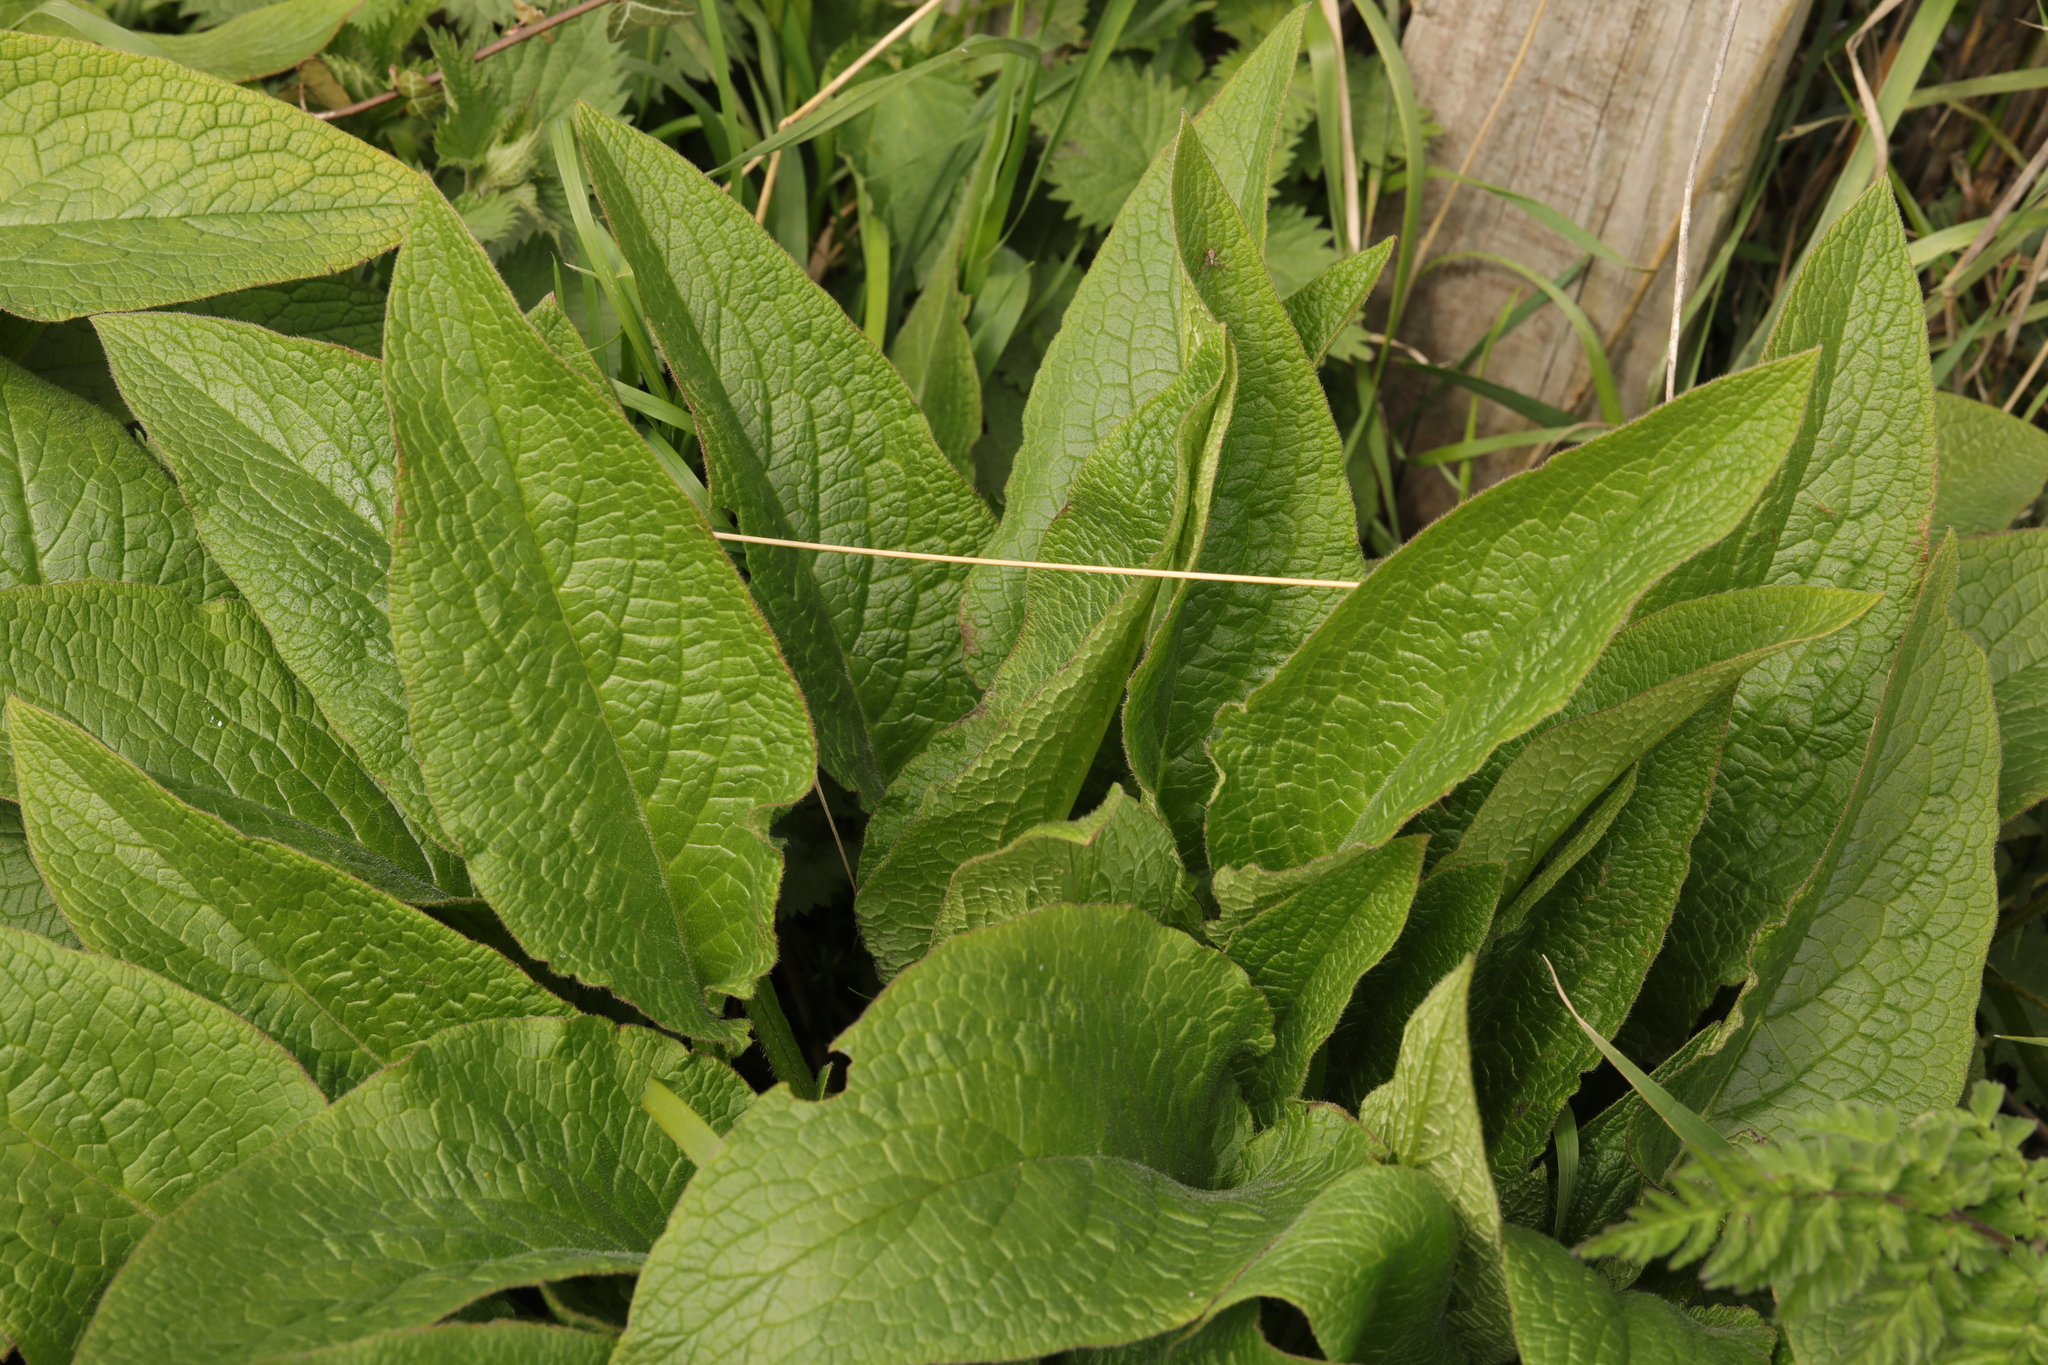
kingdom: Plantae
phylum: Tracheophyta
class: Magnoliopsida
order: Boraginales
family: Boraginaceae
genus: Symphytum
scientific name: Symphytum officinale
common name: Common comfrey
